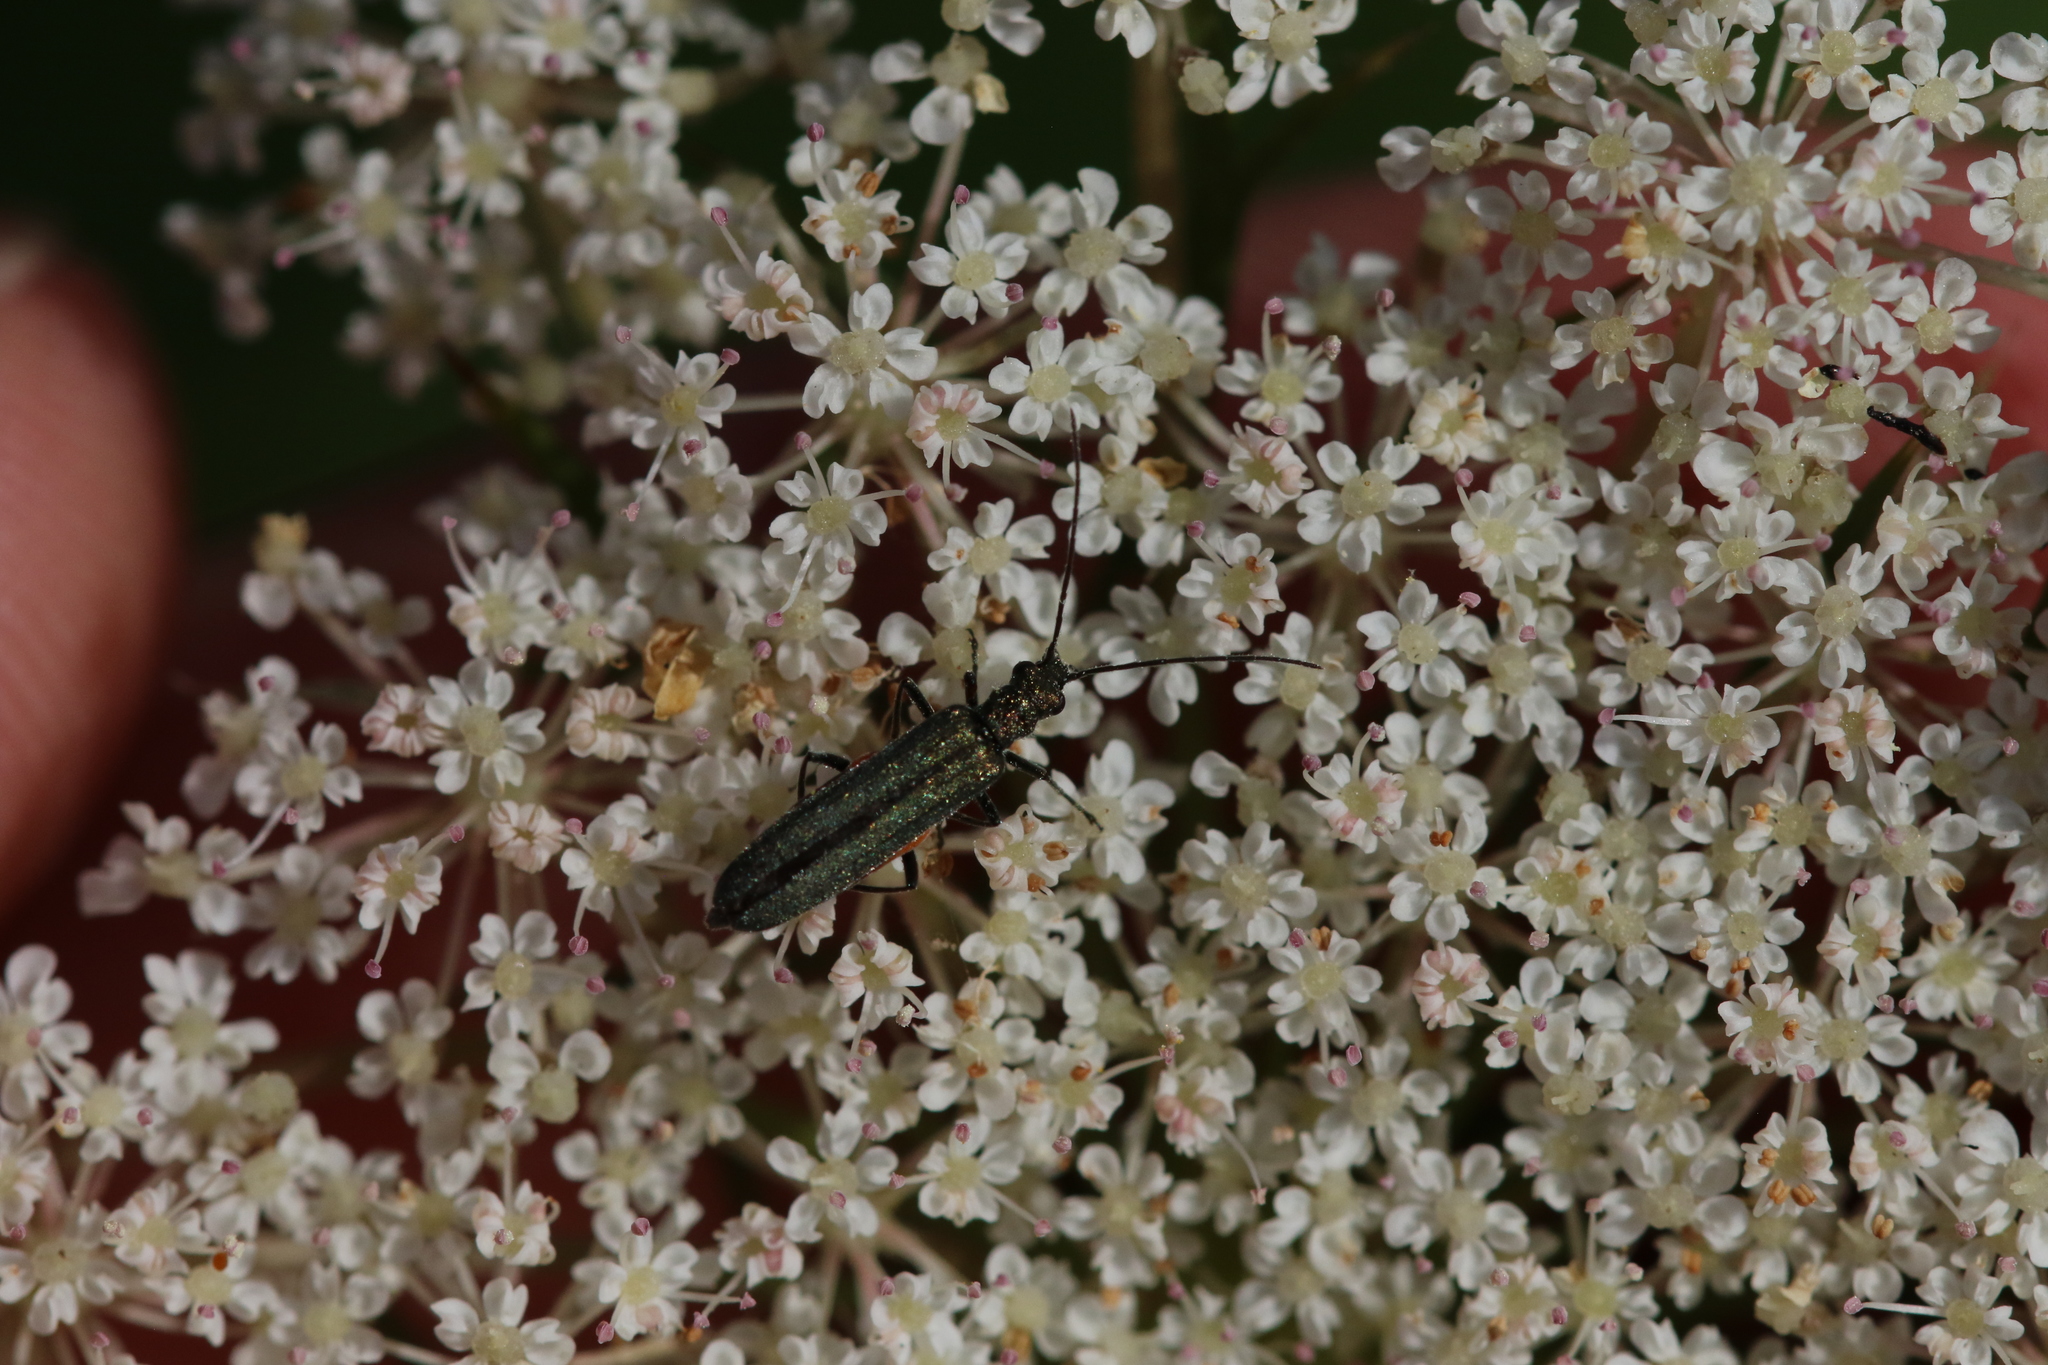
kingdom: Animalia
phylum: Arthropoda
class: Insecta
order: Coleoptera
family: Oedemeridae
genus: Oedemera
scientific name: Oedemera nobilis
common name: Swollen-thighed beetle
